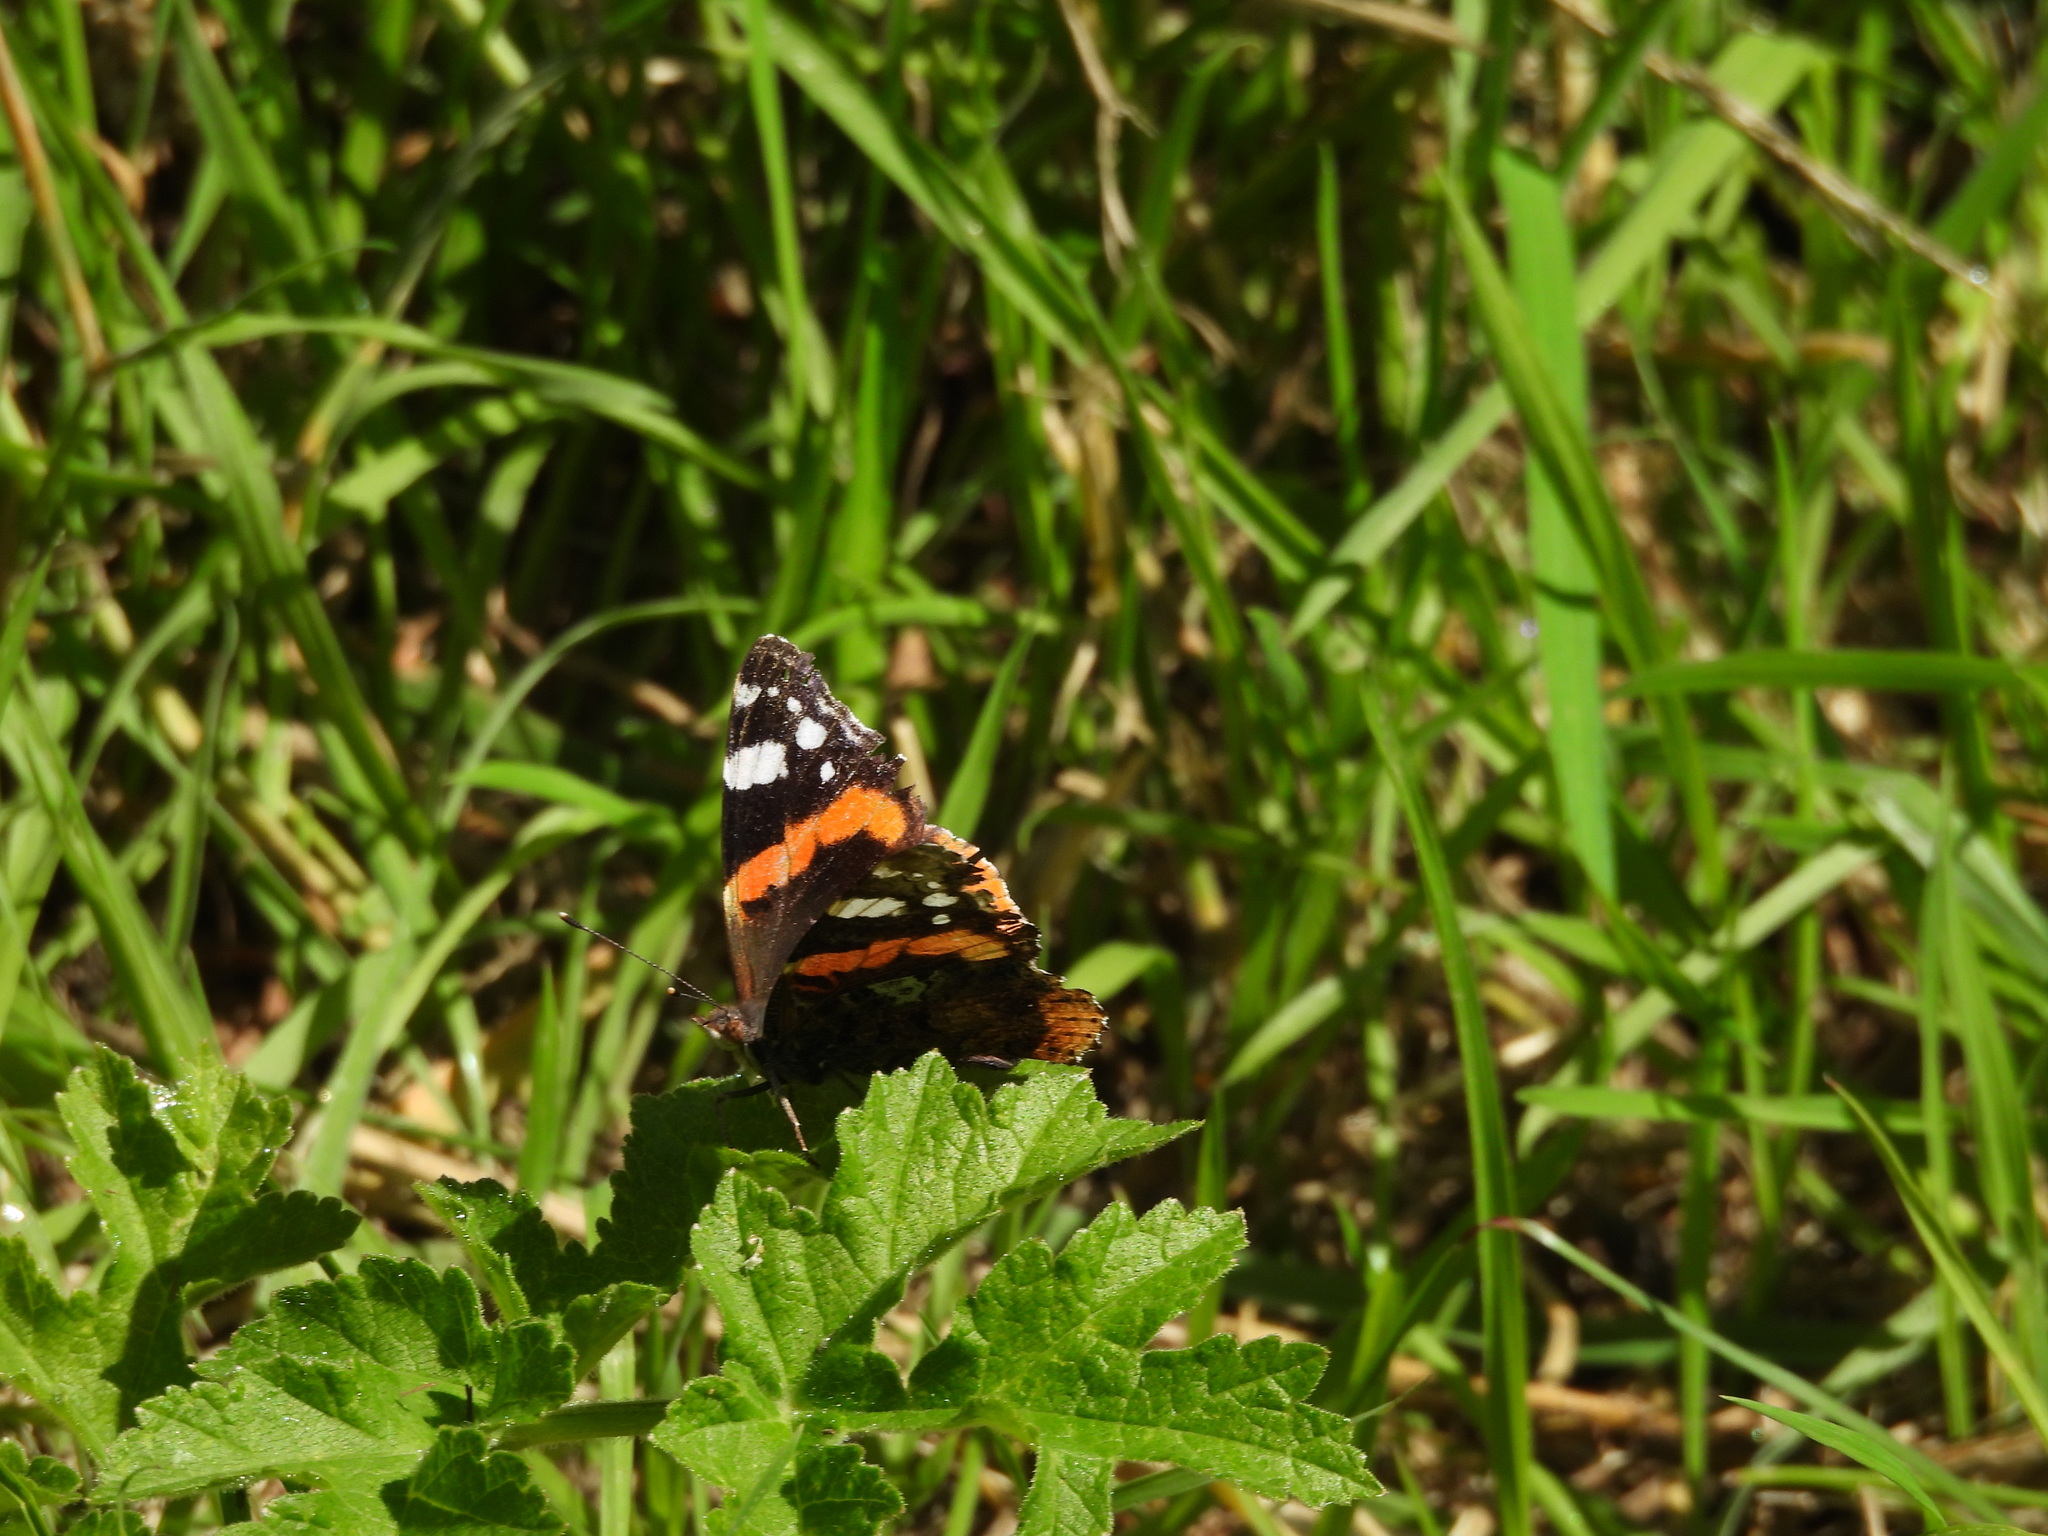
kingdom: Animalia
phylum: Arthropoda
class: Insecta
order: Lepidoptera
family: Nymphalidae
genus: Vanessa
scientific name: Vanessa atalanta
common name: Red admiral
